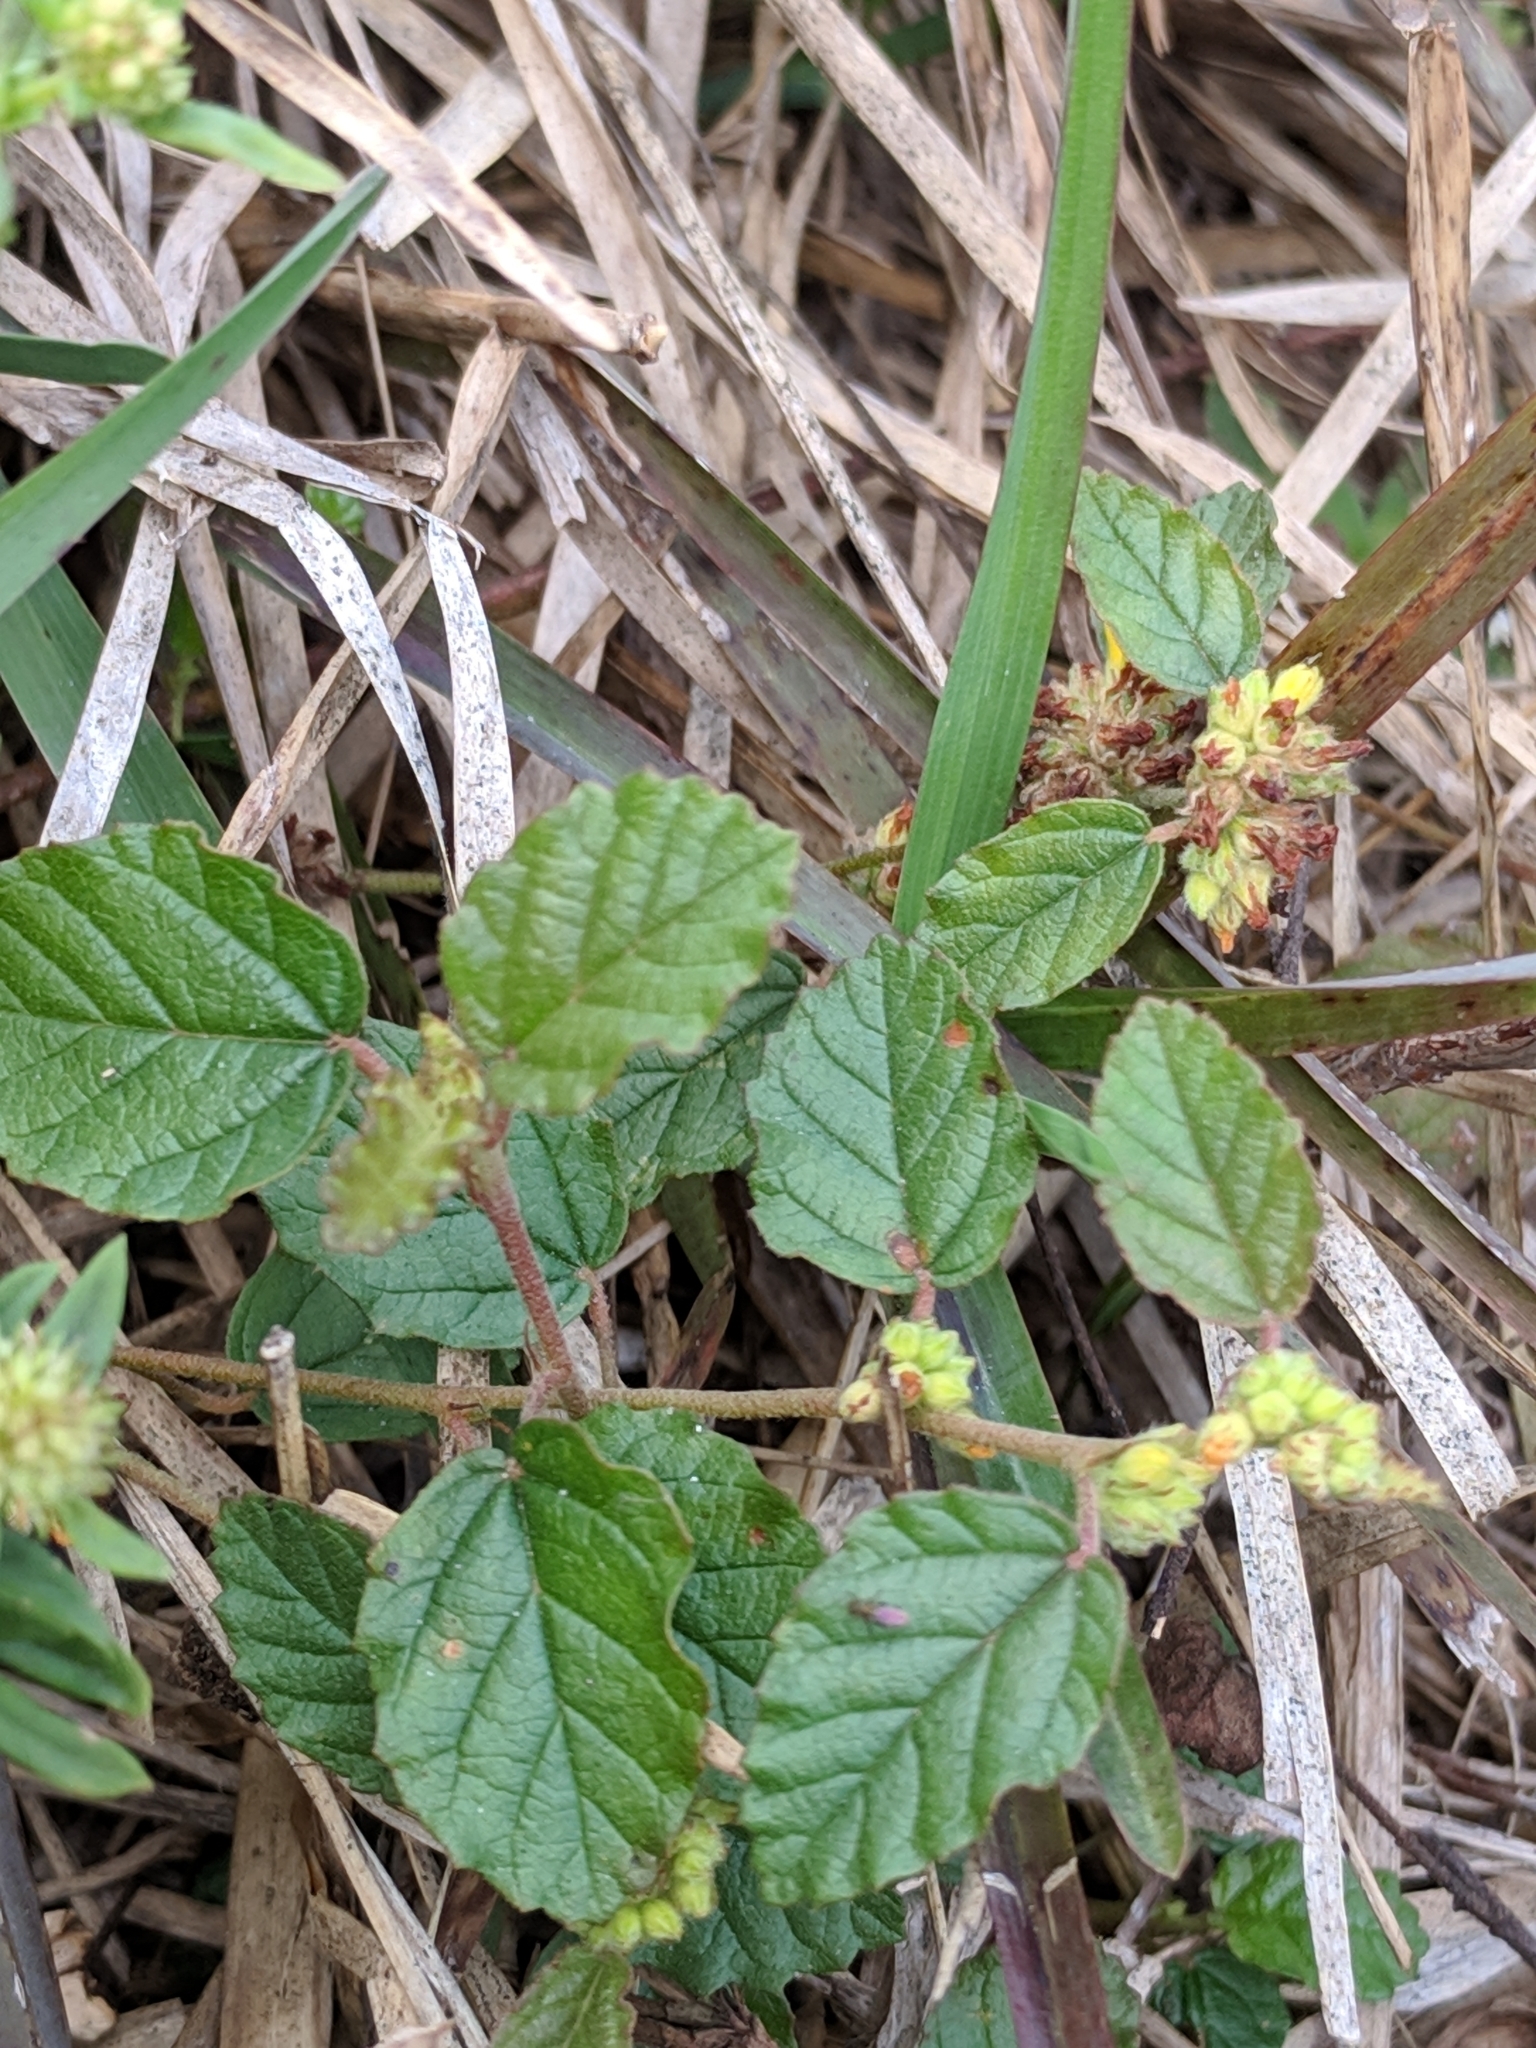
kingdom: Plantae
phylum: Tracheophyta
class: Magnoliopsida
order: Malvales
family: Malvaceae
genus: Waltheria
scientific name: Waltheria indica
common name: Leather-coat
